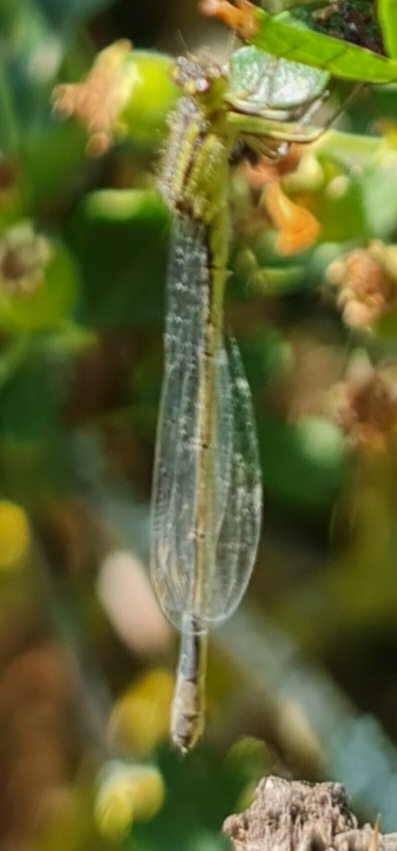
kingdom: Animalia
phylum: Arthropoda
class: Insecta
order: Odonata
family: Coenagrionidae
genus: Ischnura
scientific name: Ischnura elegans
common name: Blue-tailed damselfly
